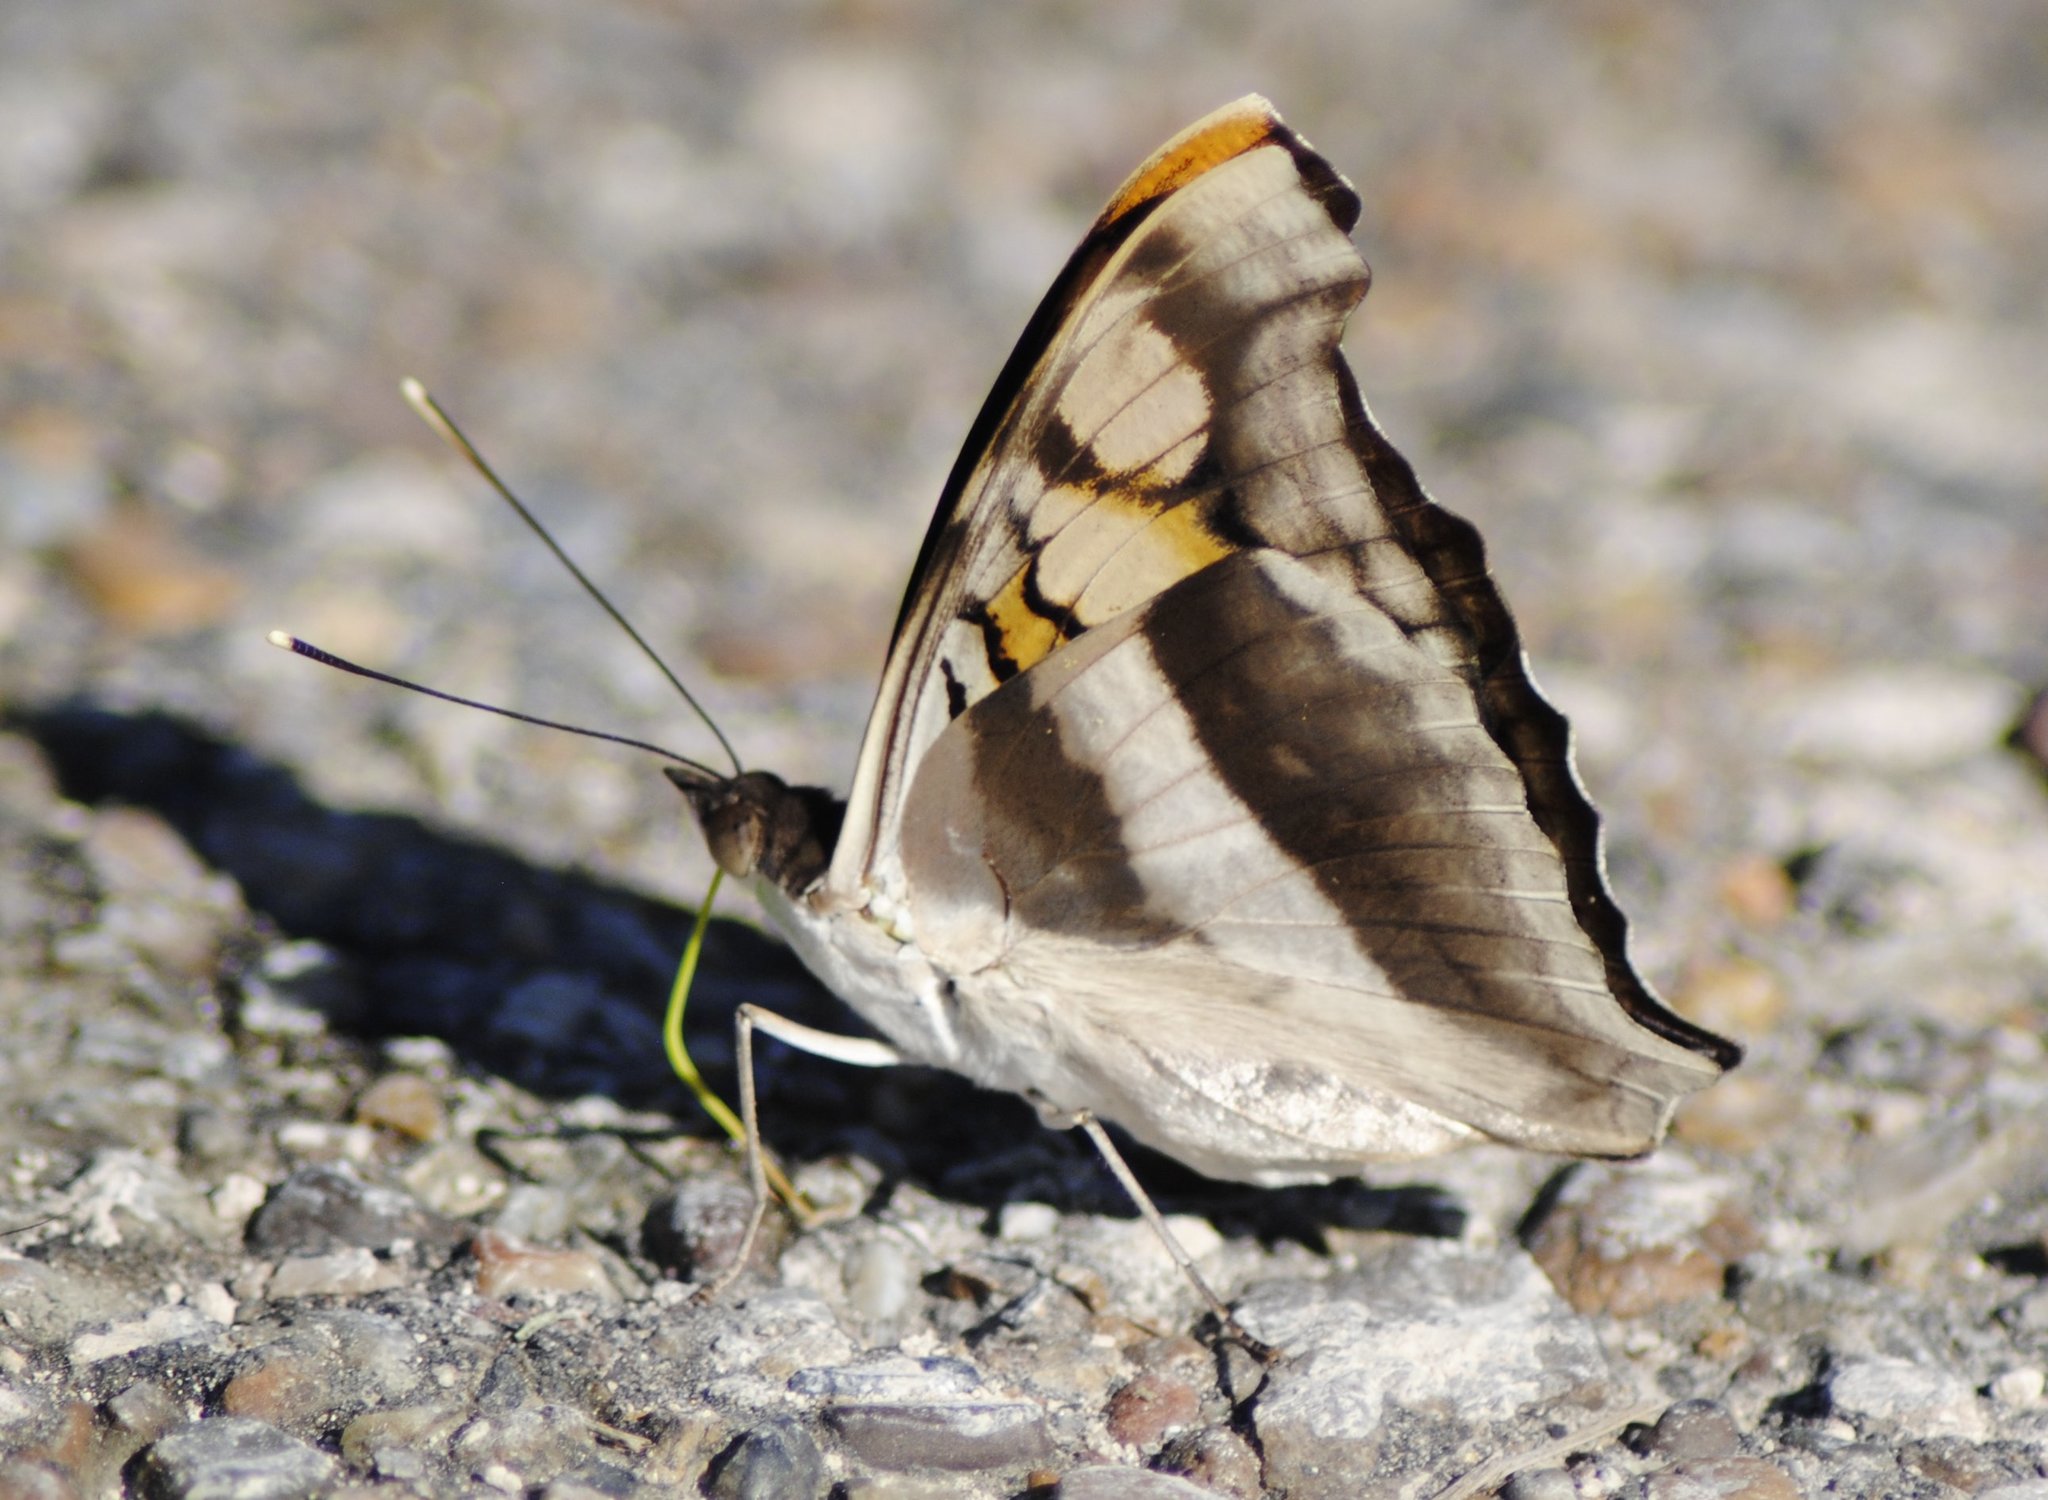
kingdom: Animalia
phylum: Arthropoda
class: Insecta
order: Lepidoptera
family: Nymphalidae
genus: Doxocopa
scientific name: Doxocopa laure
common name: Silver emperor
